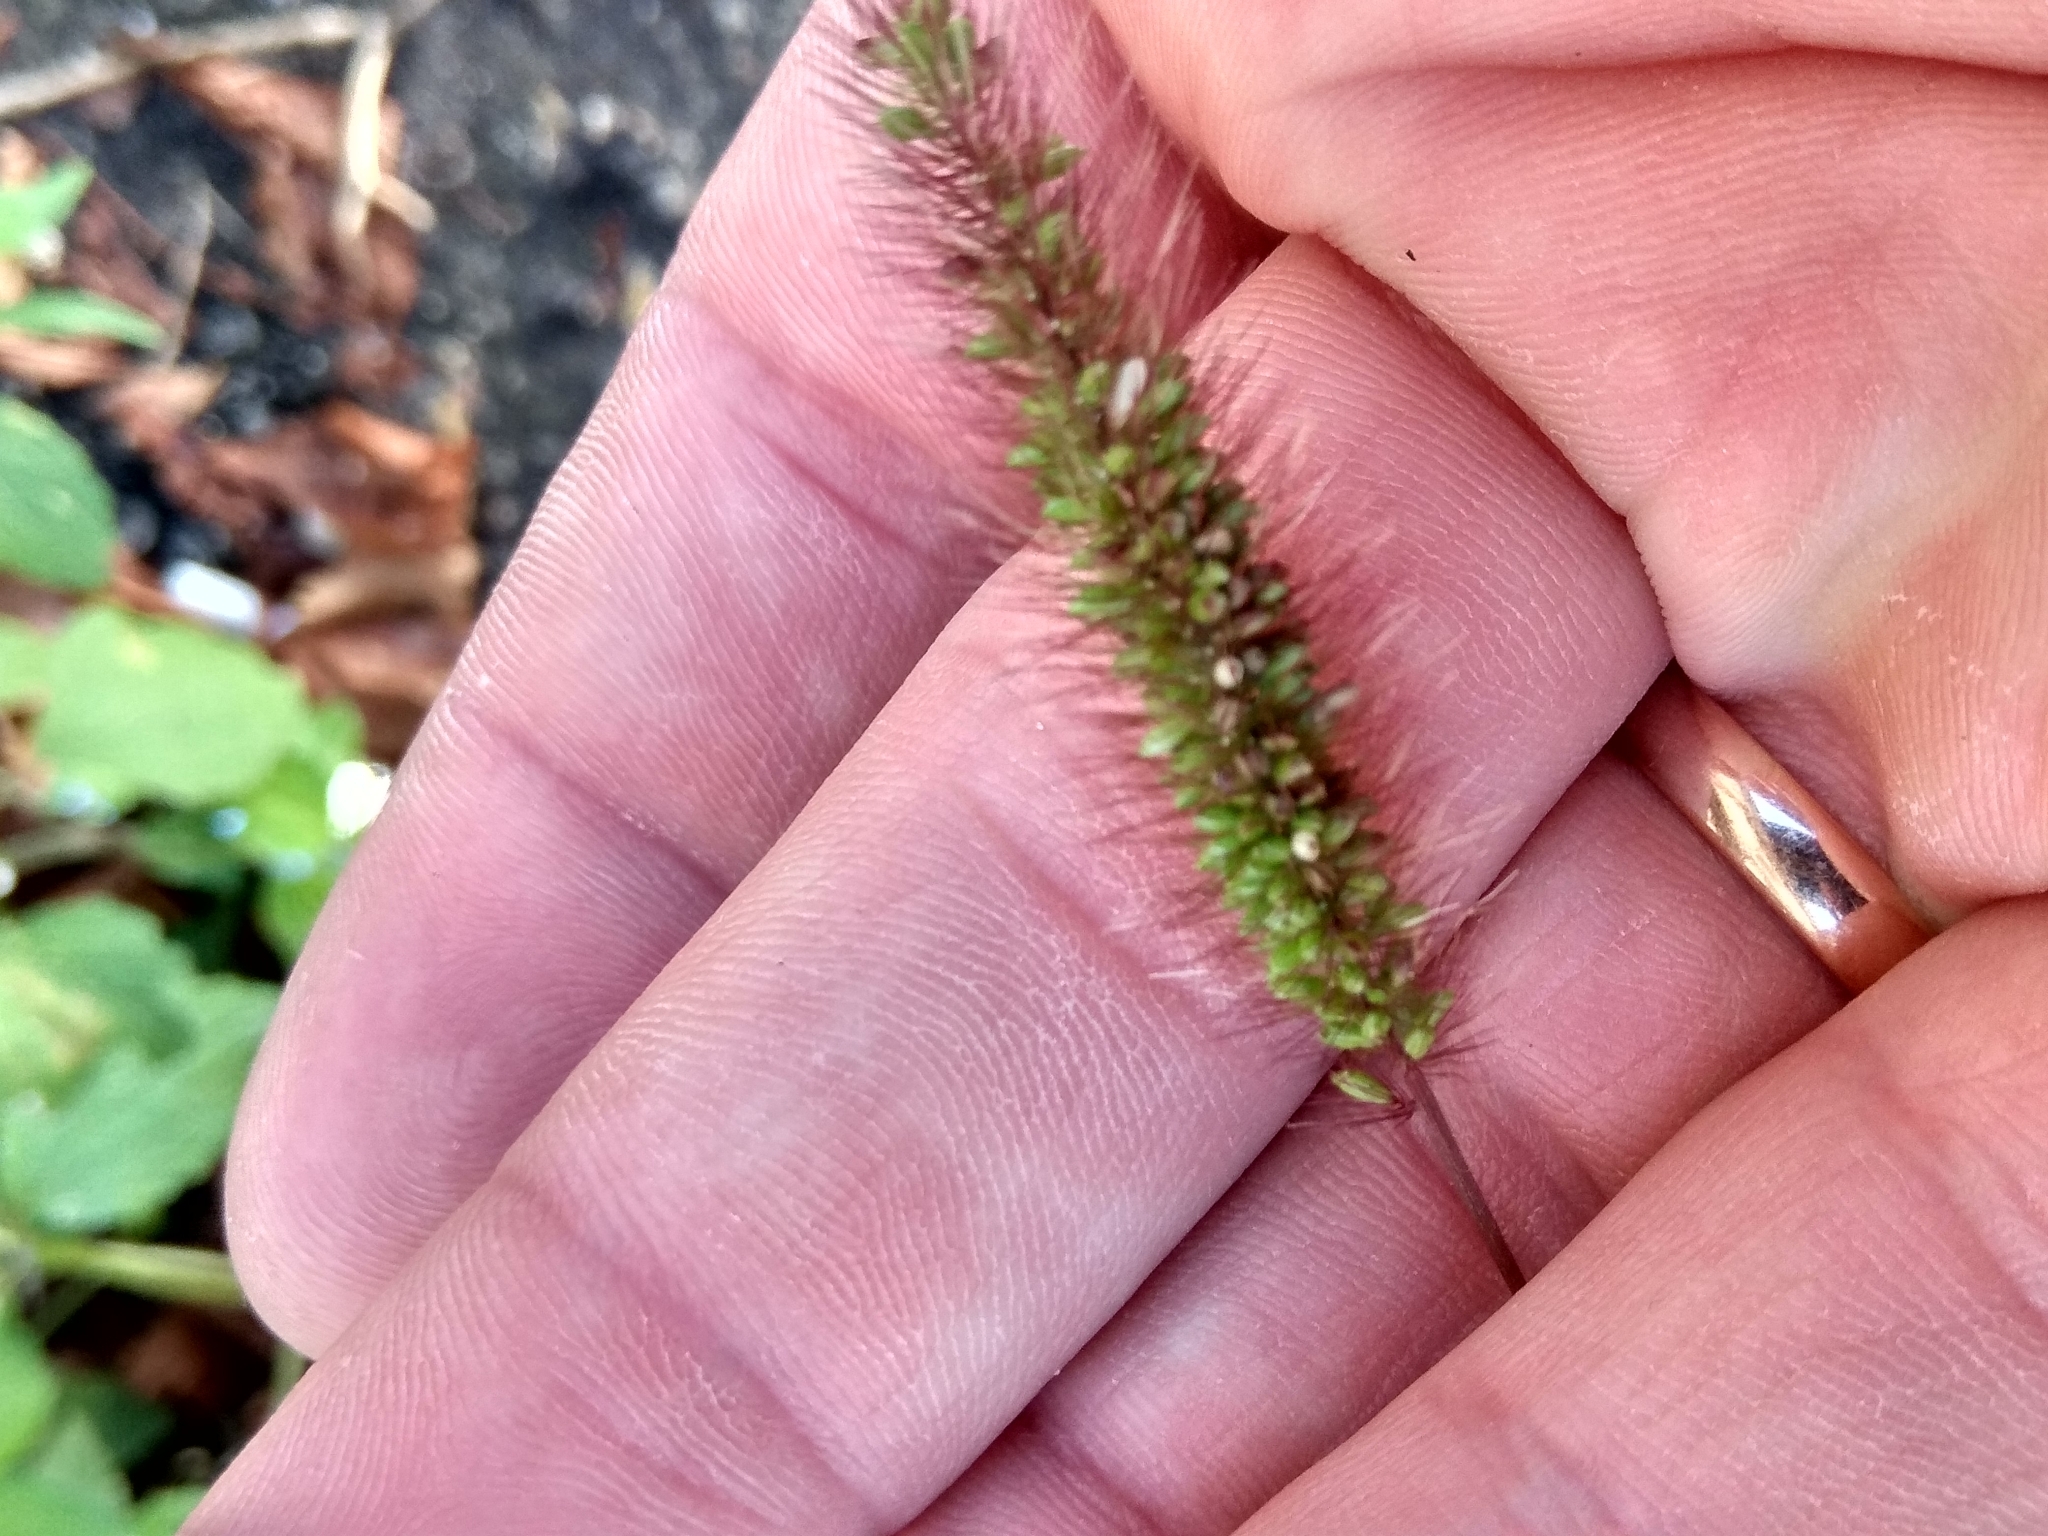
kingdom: Plantae
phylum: Tracheophyta
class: Liliopsida
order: Poales
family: Poaceae
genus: Setaria
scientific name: Setaria viridis
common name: Green bristlegrass
